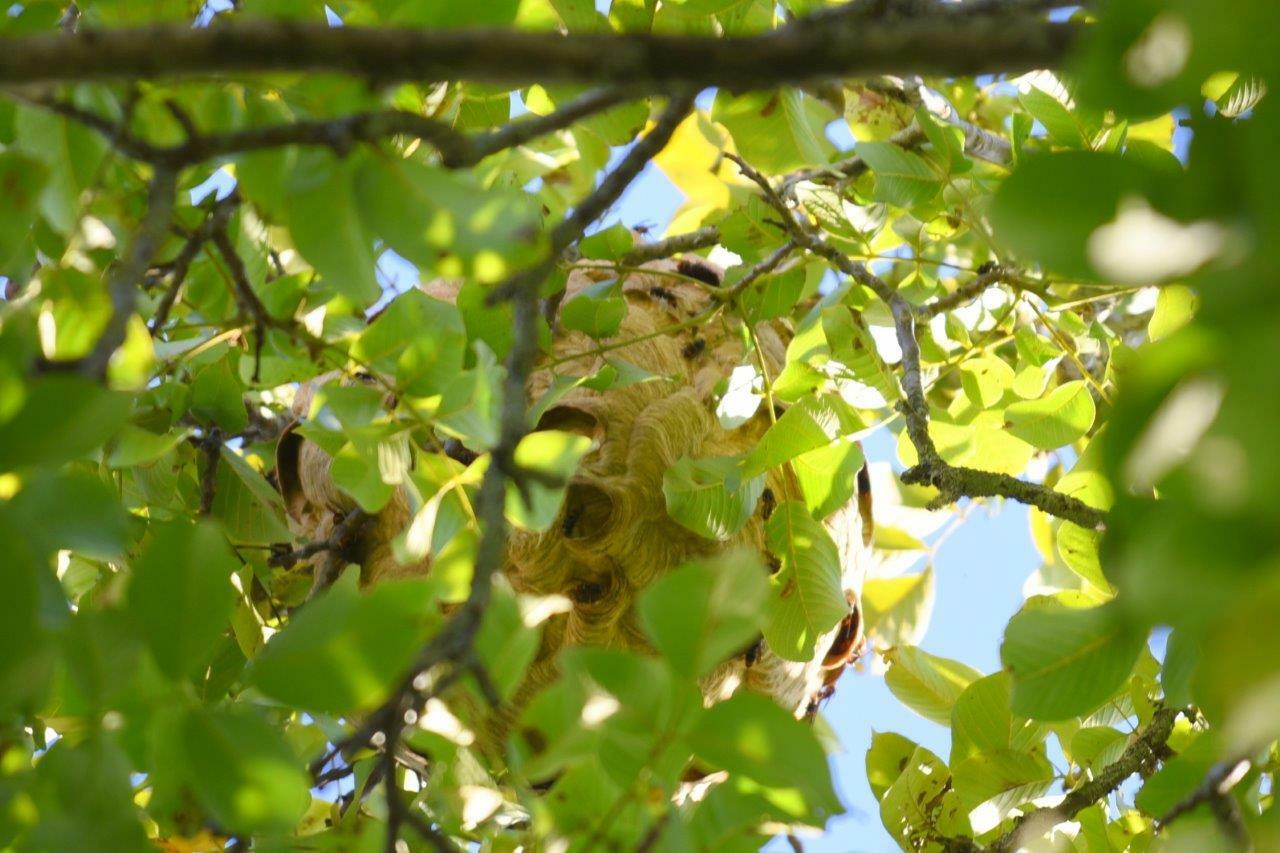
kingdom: Animalia
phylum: Arthropoda
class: Insecta
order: Hymenoptera
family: Vespidae
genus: Vespa
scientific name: Vespa velutina
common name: Asian hornet
